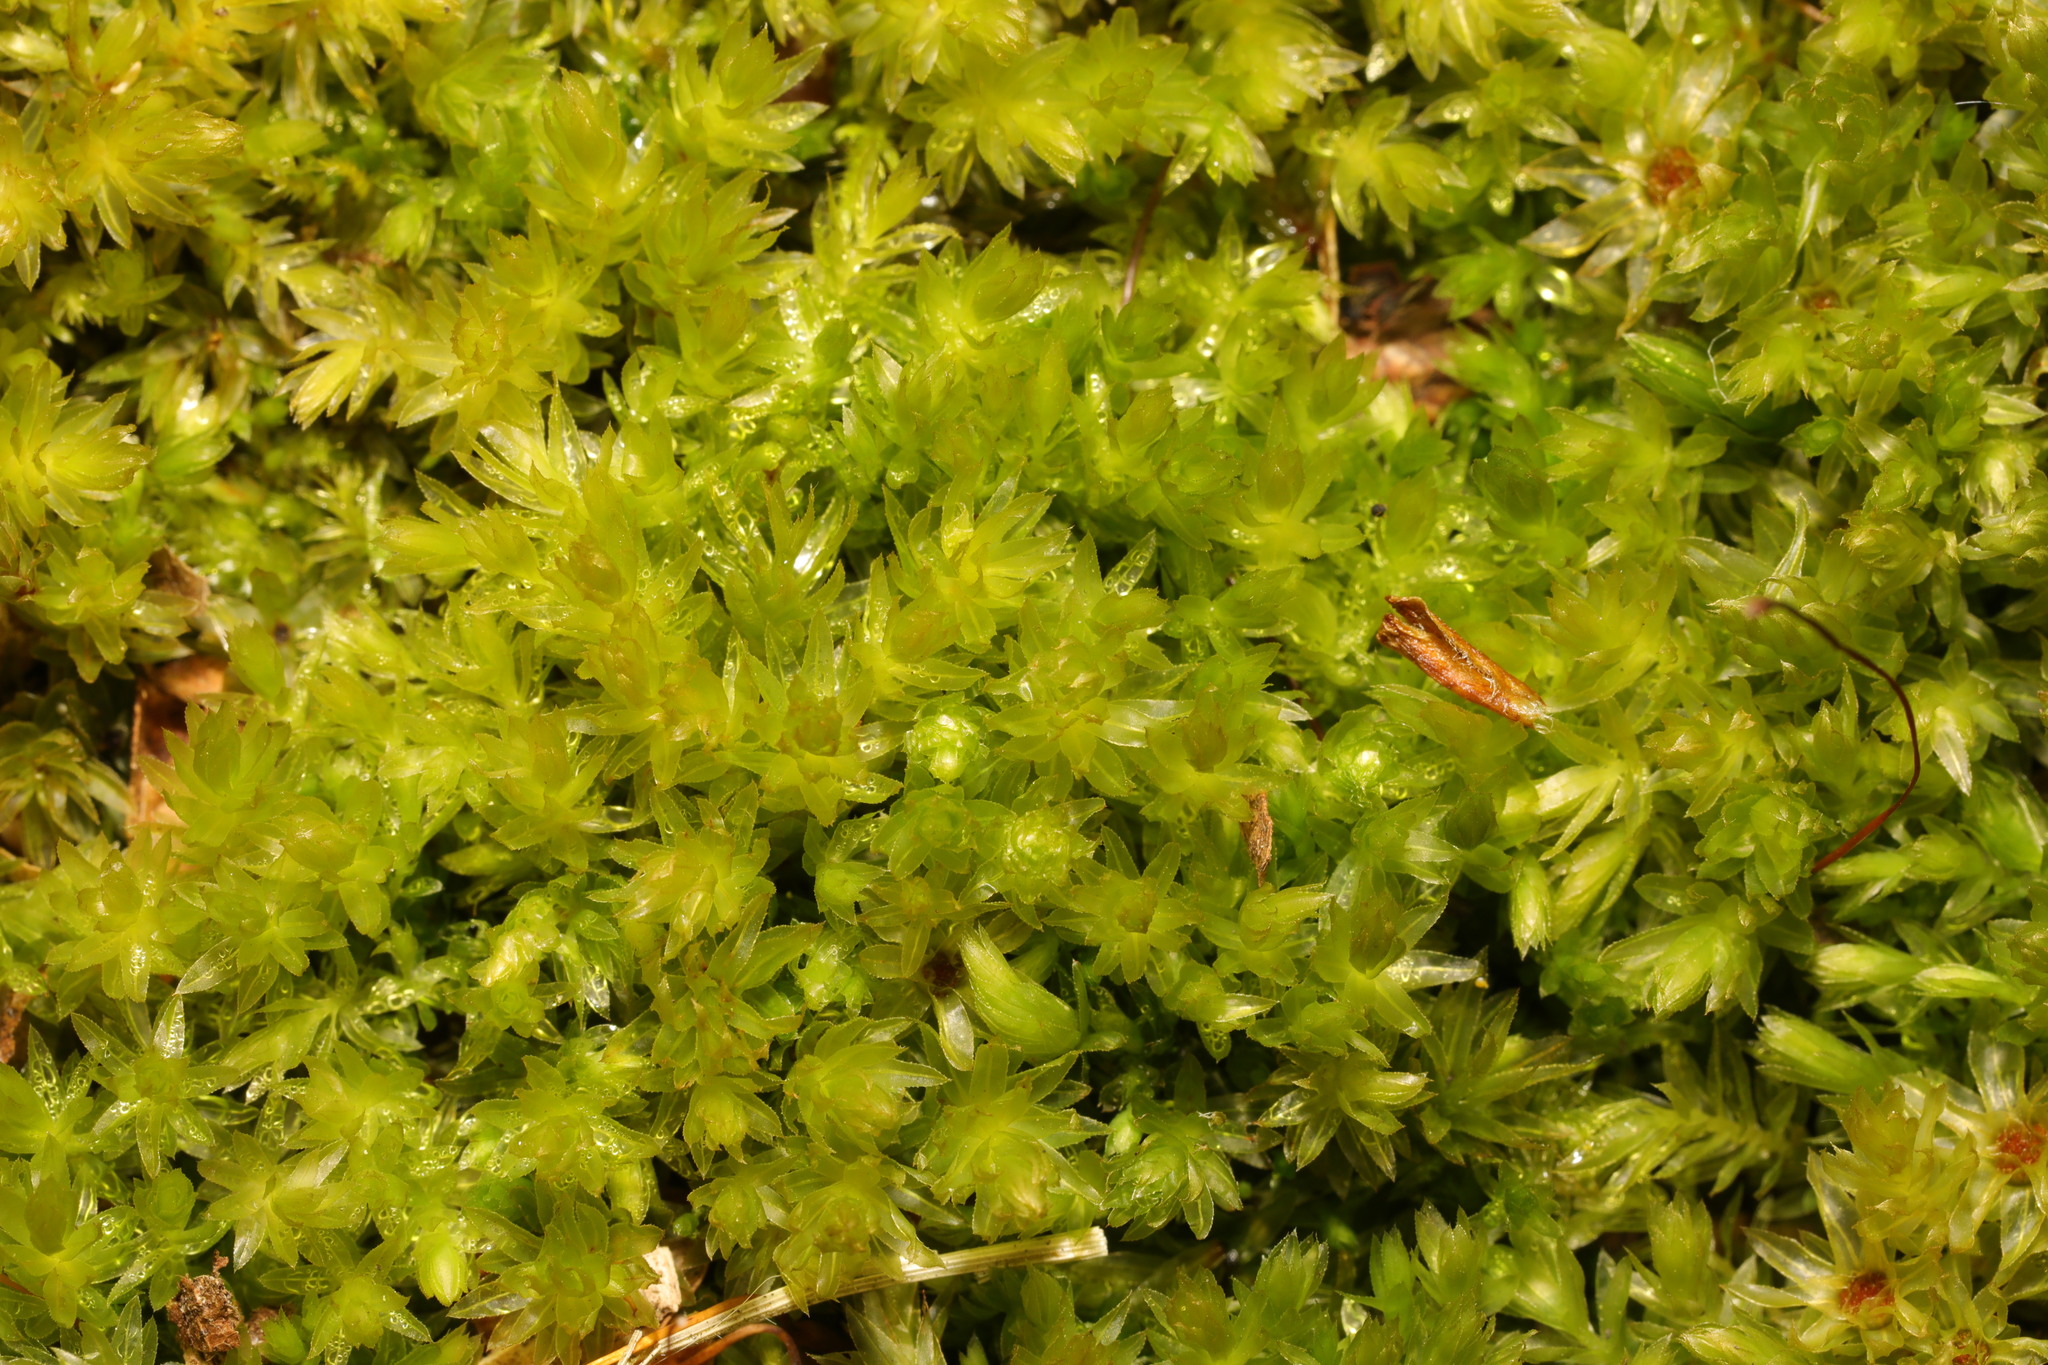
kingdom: Plantae
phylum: Bryophyta
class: Bryopsida
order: Bryales
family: Mniaceae
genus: Mnium
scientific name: Mnium hornum
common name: Swan's-neck leafy moss
